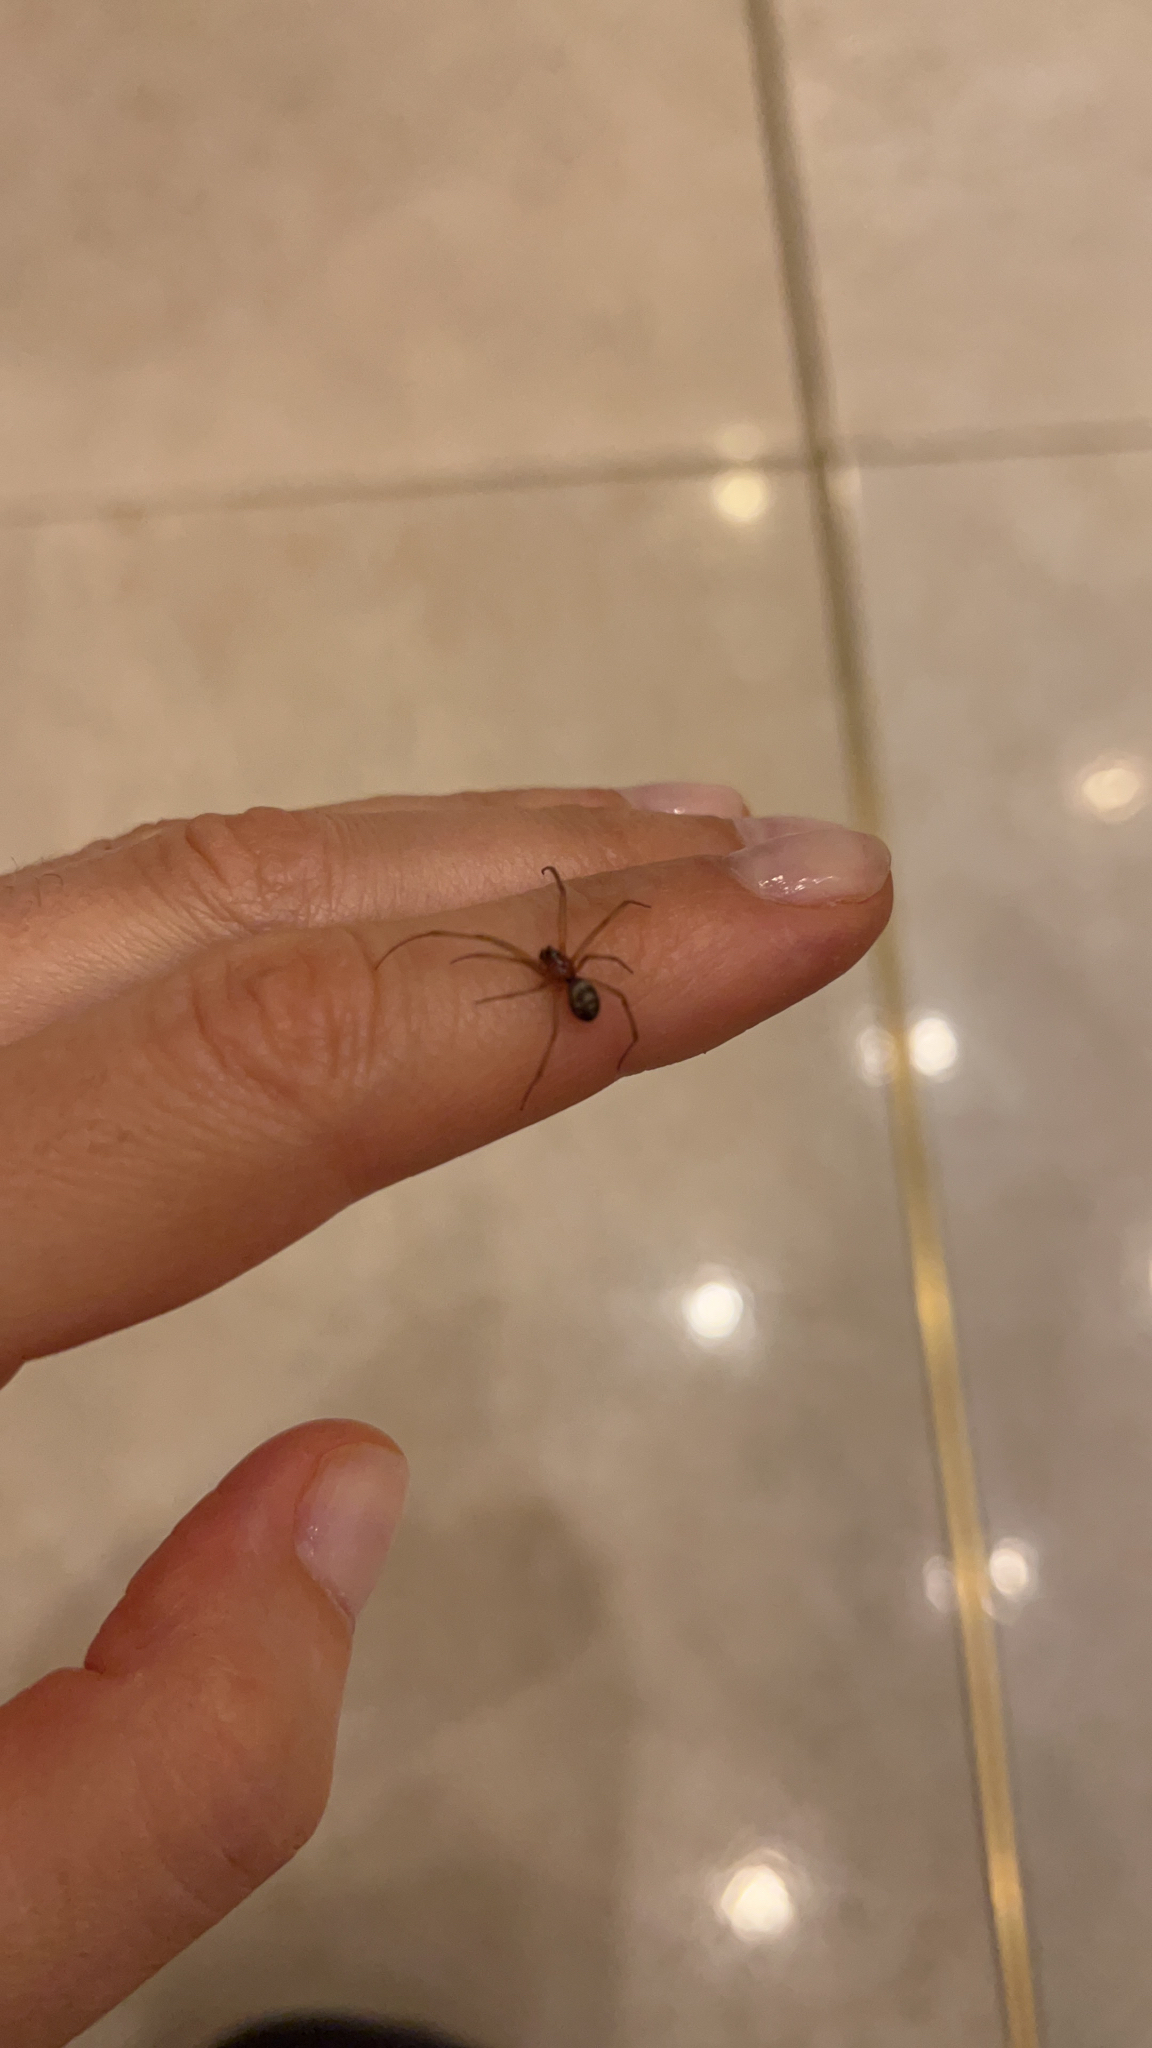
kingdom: Animalia
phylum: Arthropoda
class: Arachnida
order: Araneae
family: Theridiidae
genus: Steatoda
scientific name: Steatoda grossa
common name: False black widow
